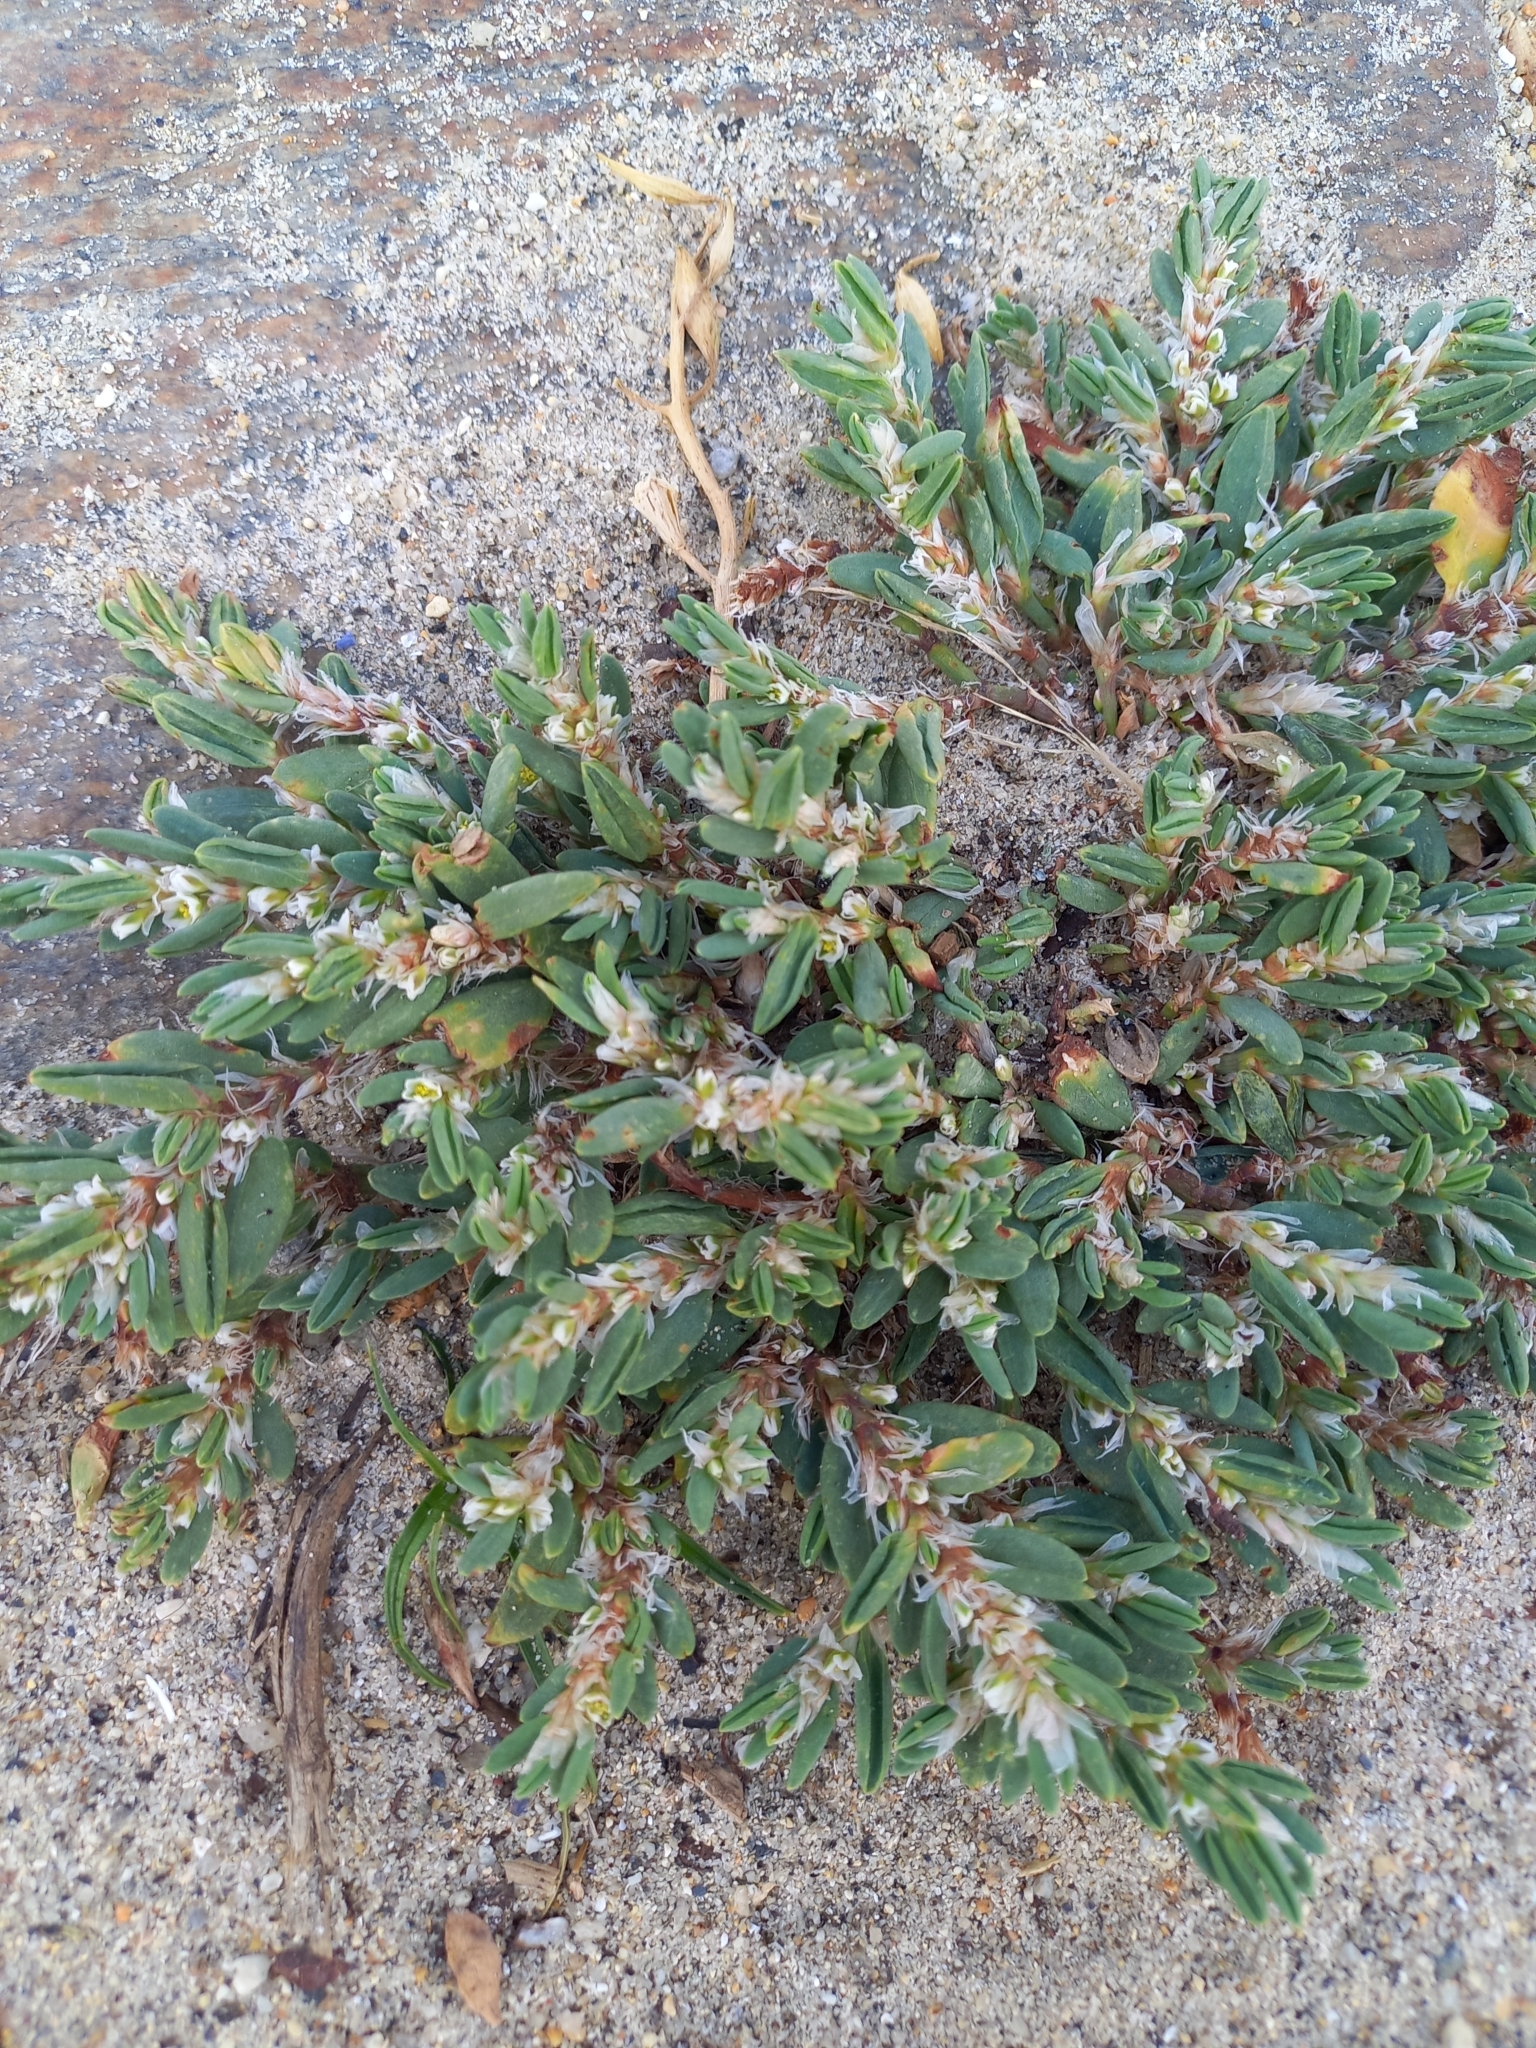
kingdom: Plantae
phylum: Tracheophyta
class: Magnoliopsida
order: Caryophyllales
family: Polygonaceae
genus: Polygonum
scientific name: Polygonum maritimum
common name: Sea knotgrass
